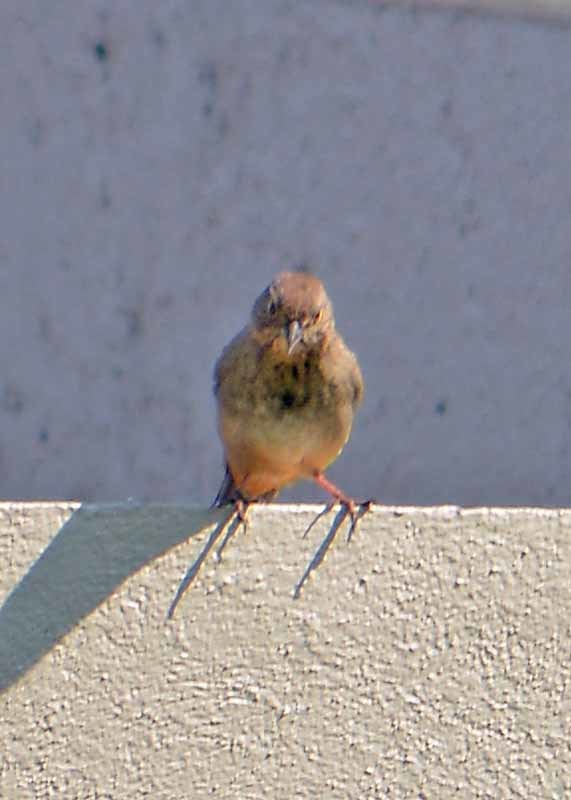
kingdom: Animalia
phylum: Chordata
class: Aves
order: Passeriformes
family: Passerellidae
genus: Melozone
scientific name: Melozone fusca
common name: Canyon towhee
